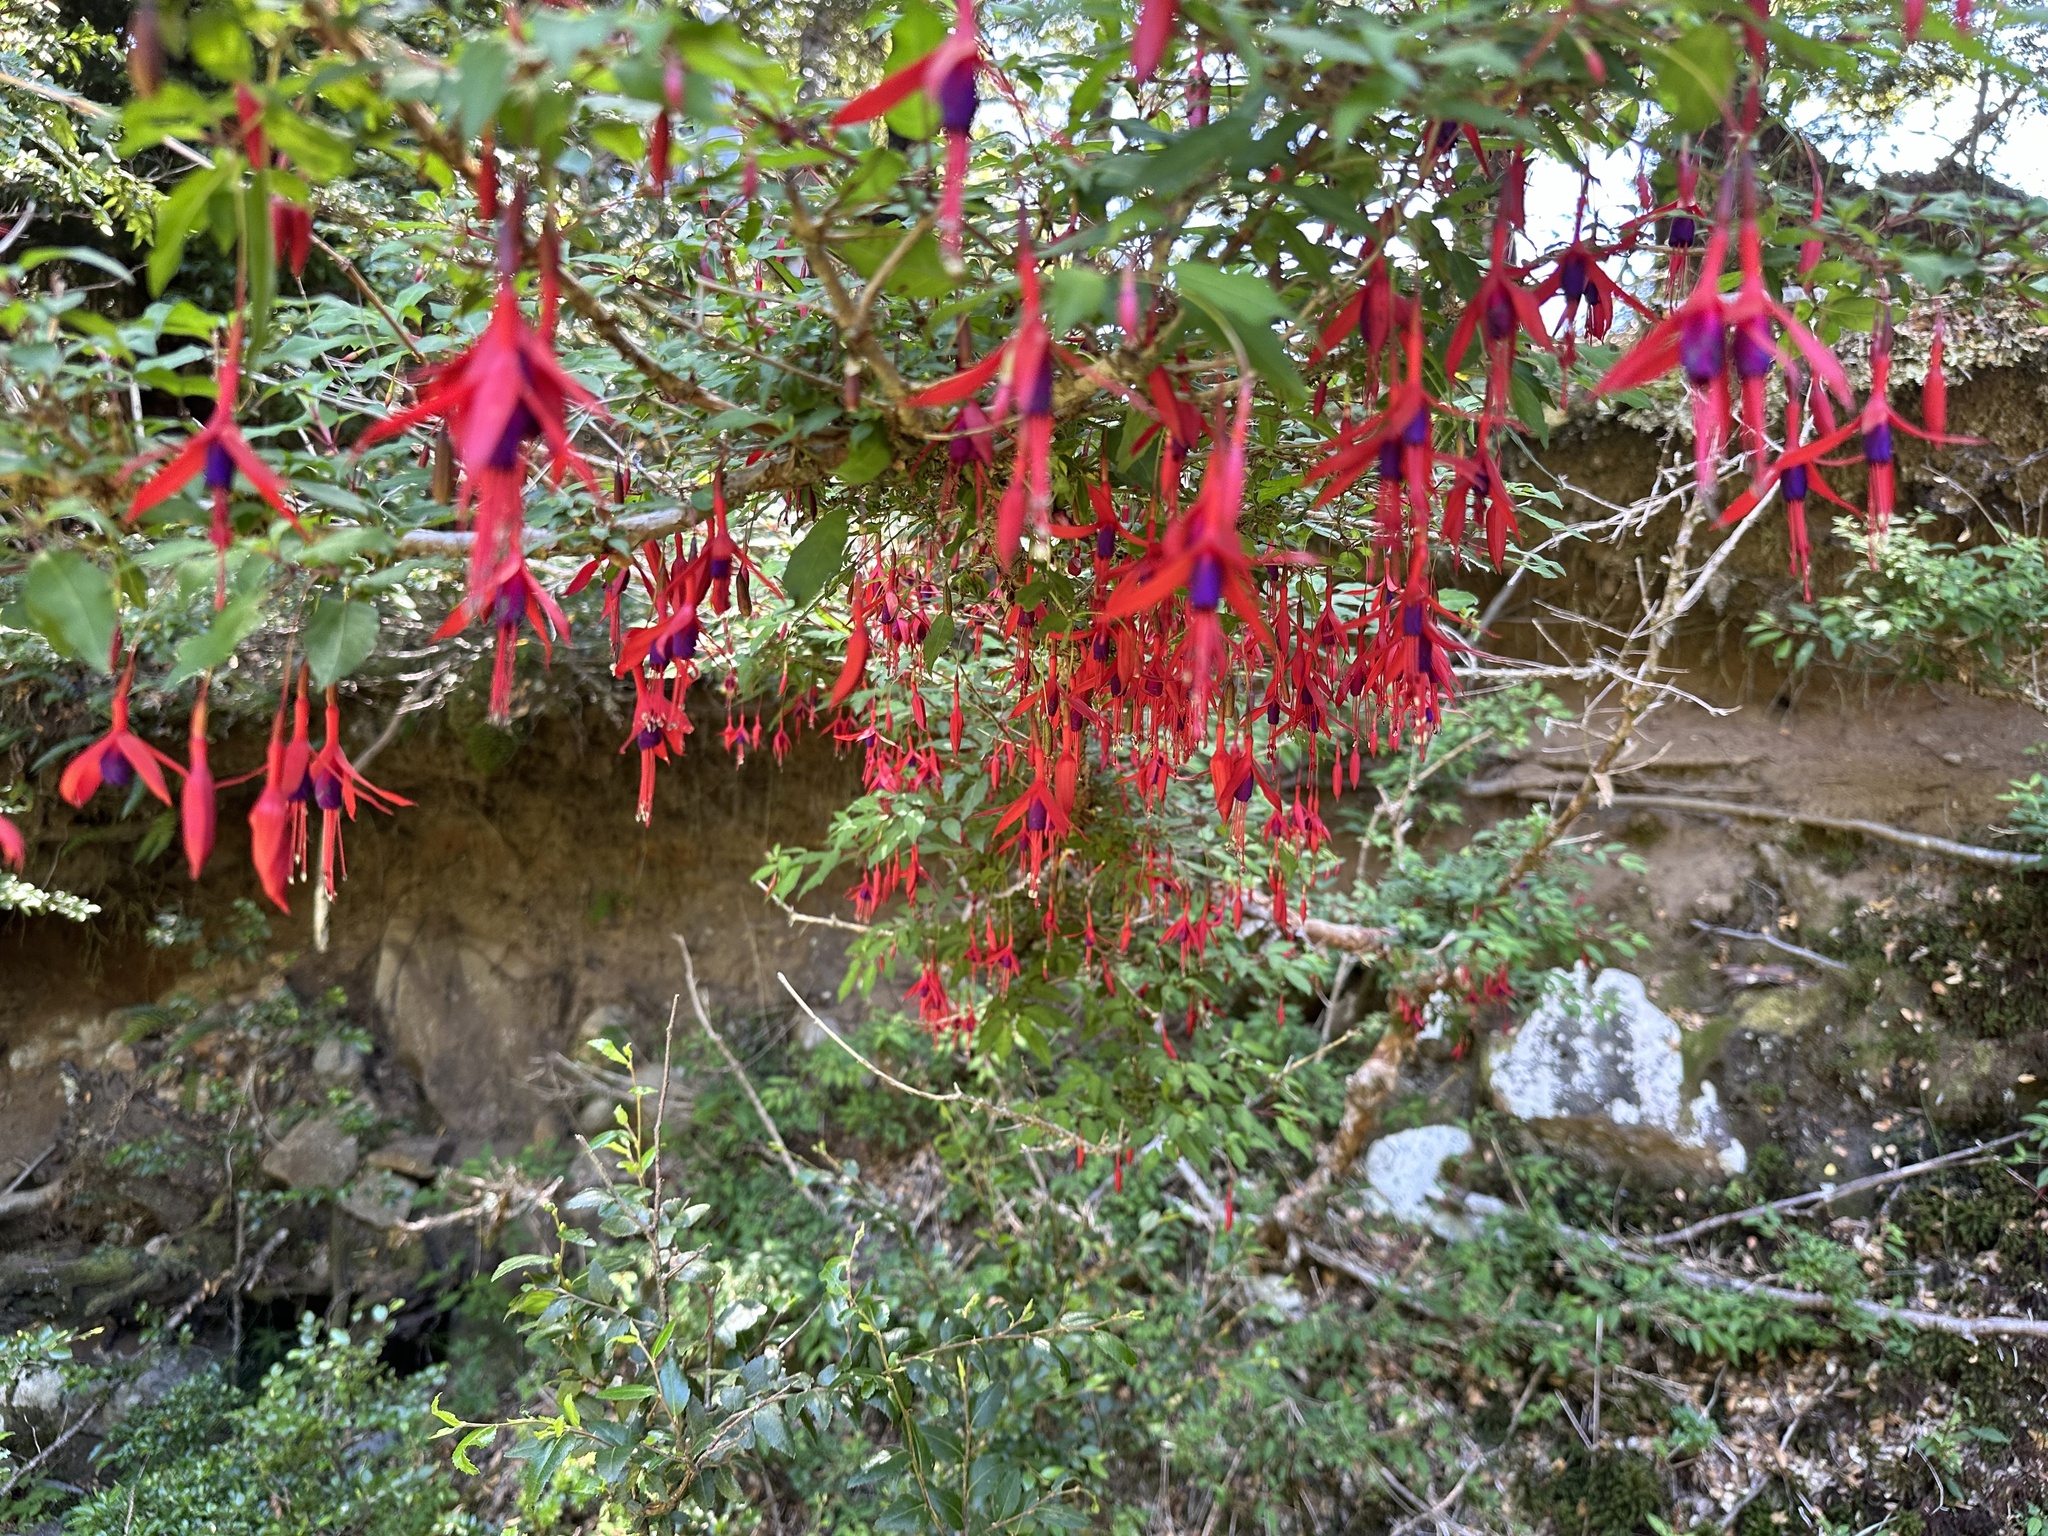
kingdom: Plantae
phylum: Tracheophyta
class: Magnoliopsida
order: Myrtales
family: Onagraceae
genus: Fuchsia
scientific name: Fuchsia magellanica
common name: Hardy fuchsia
